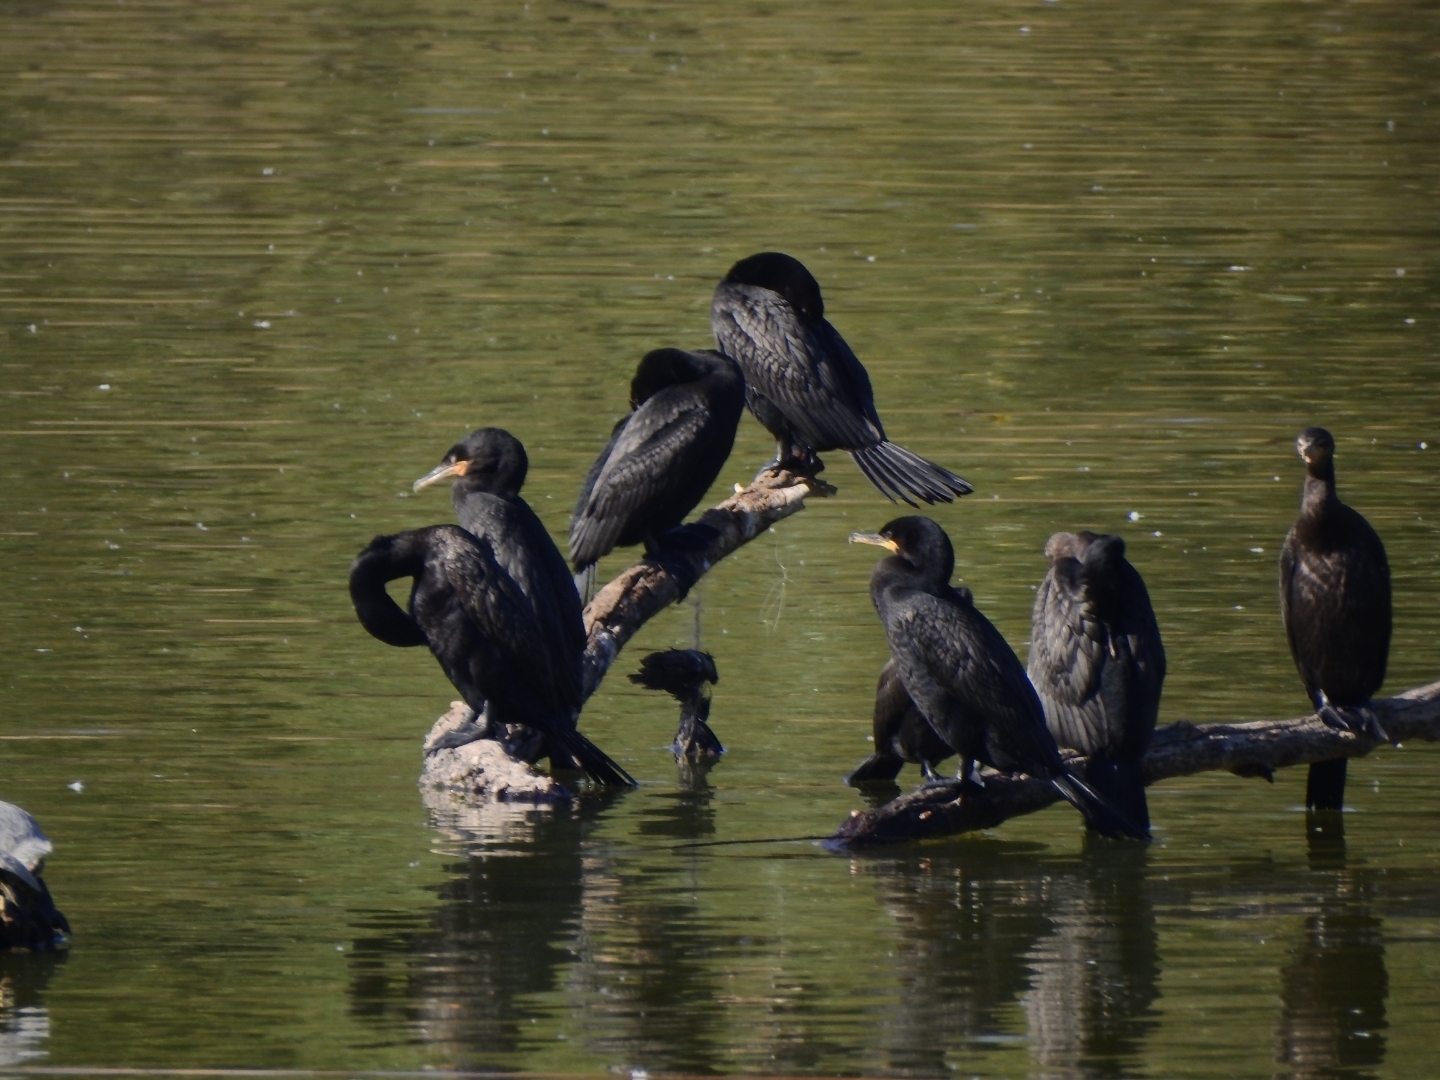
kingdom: Animalia
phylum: Chordata
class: Aves
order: Suliformes
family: Phalacrocoracidae
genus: Phalacrocorax
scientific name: Phalacrocorax brasilianus
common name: Neotropic cormorant
